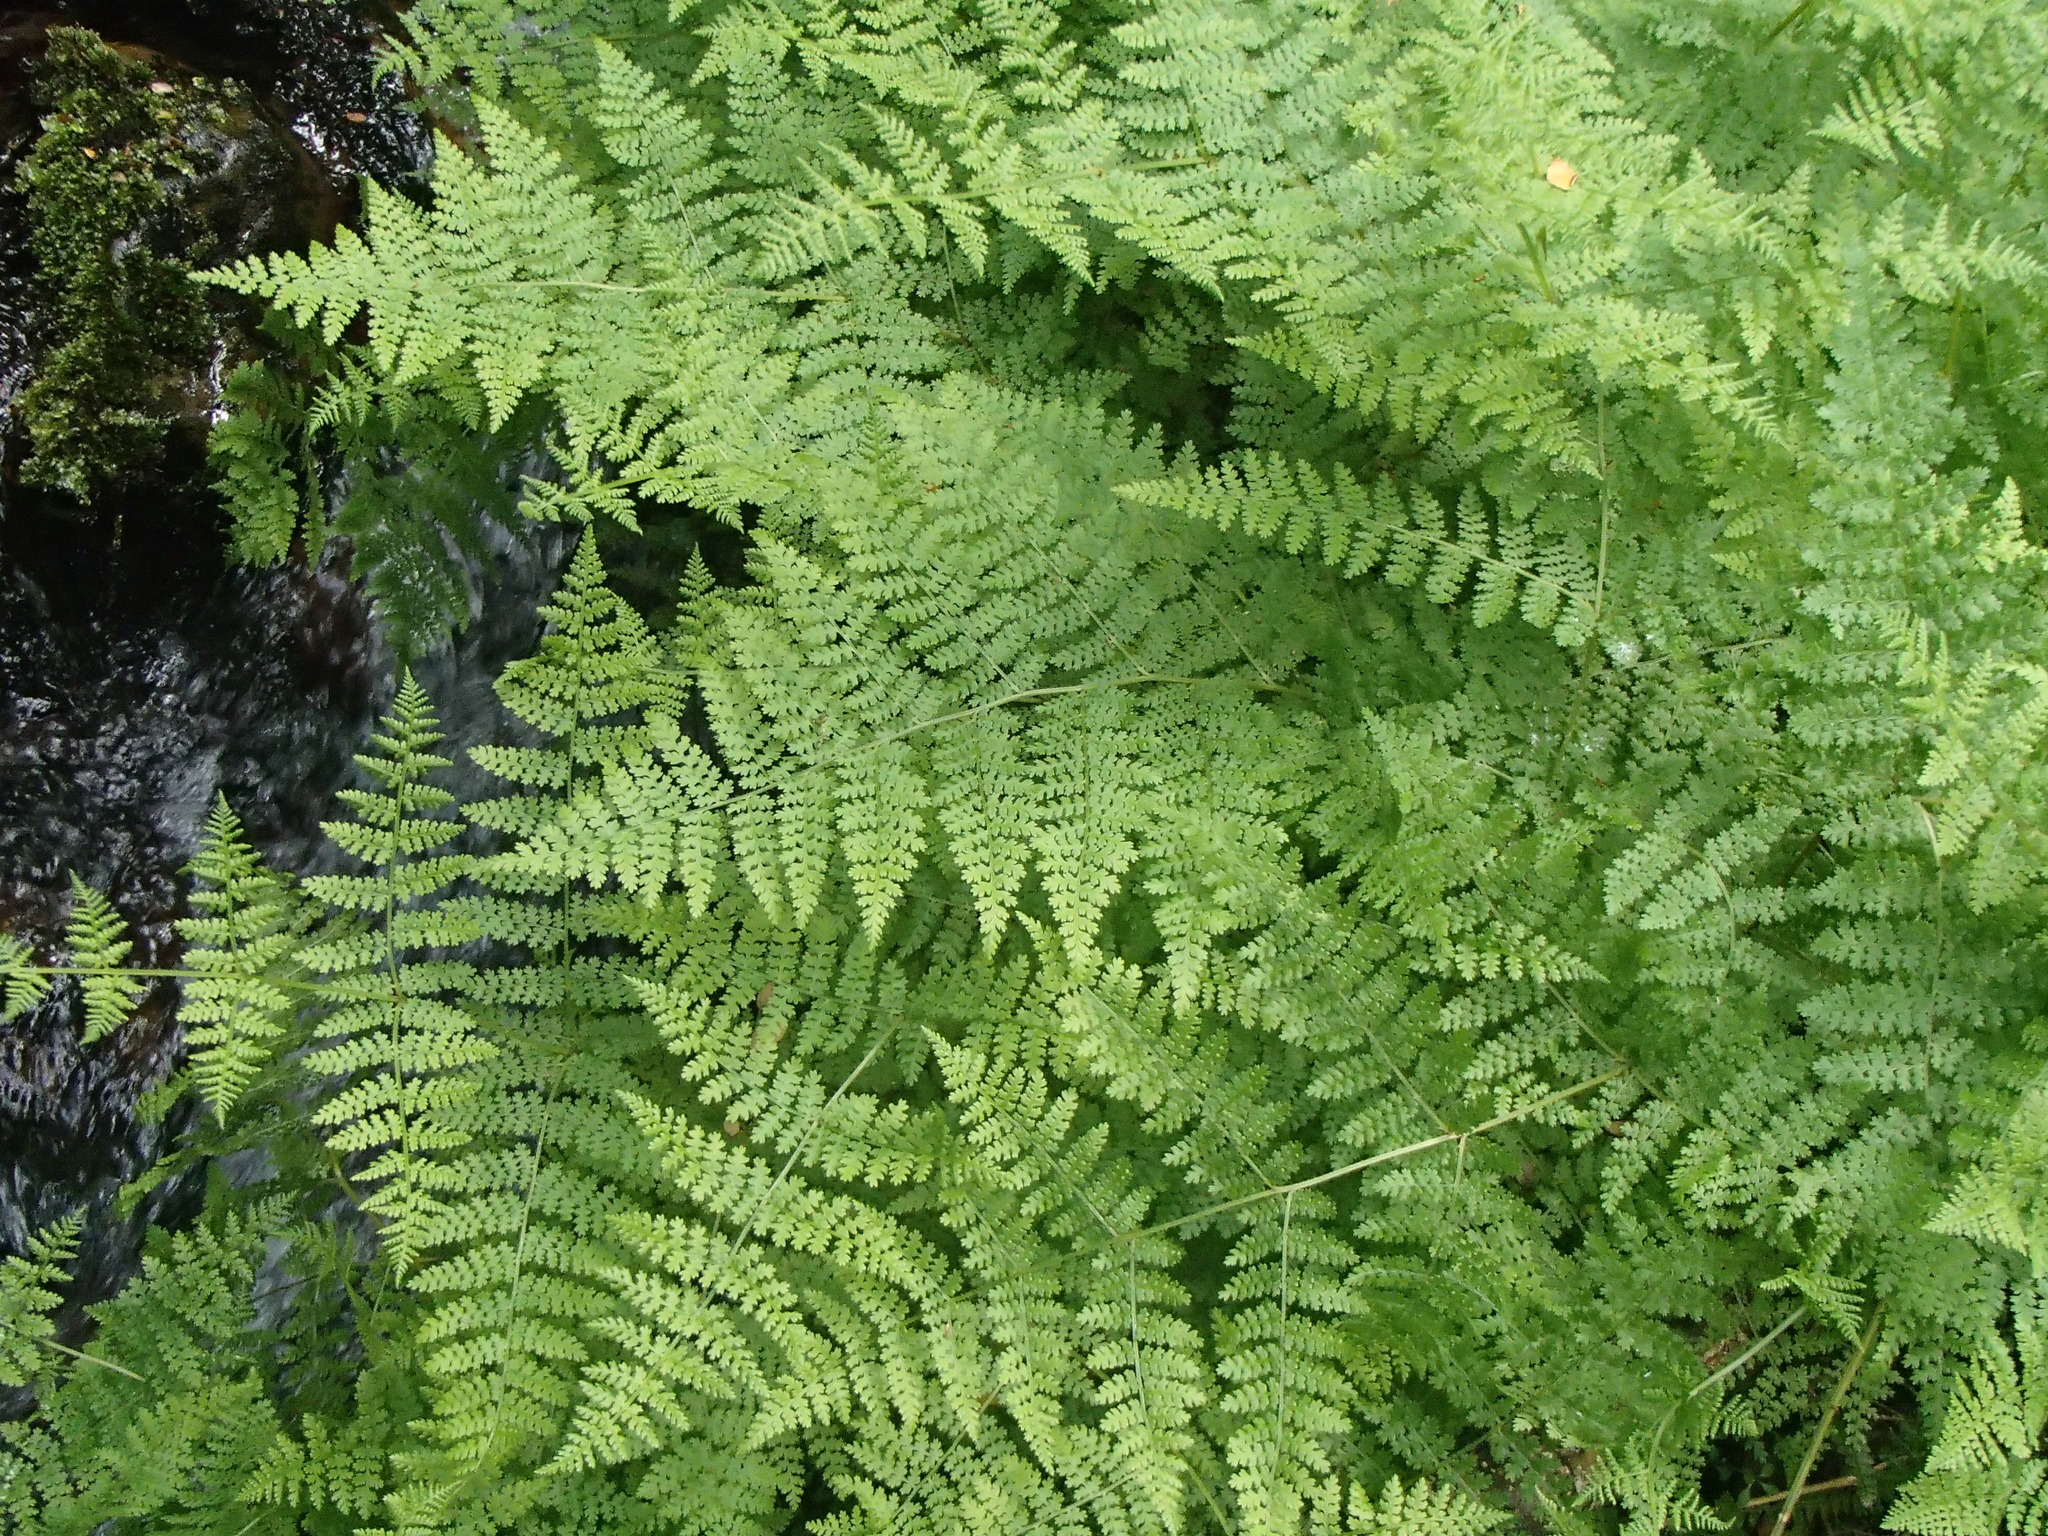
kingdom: Plantae
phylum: Tracheophyta
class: Polypodiopsida
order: Polypodiales
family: Dennstaedtiaceae
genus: Hypolepis
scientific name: Hypolepis millefolium
